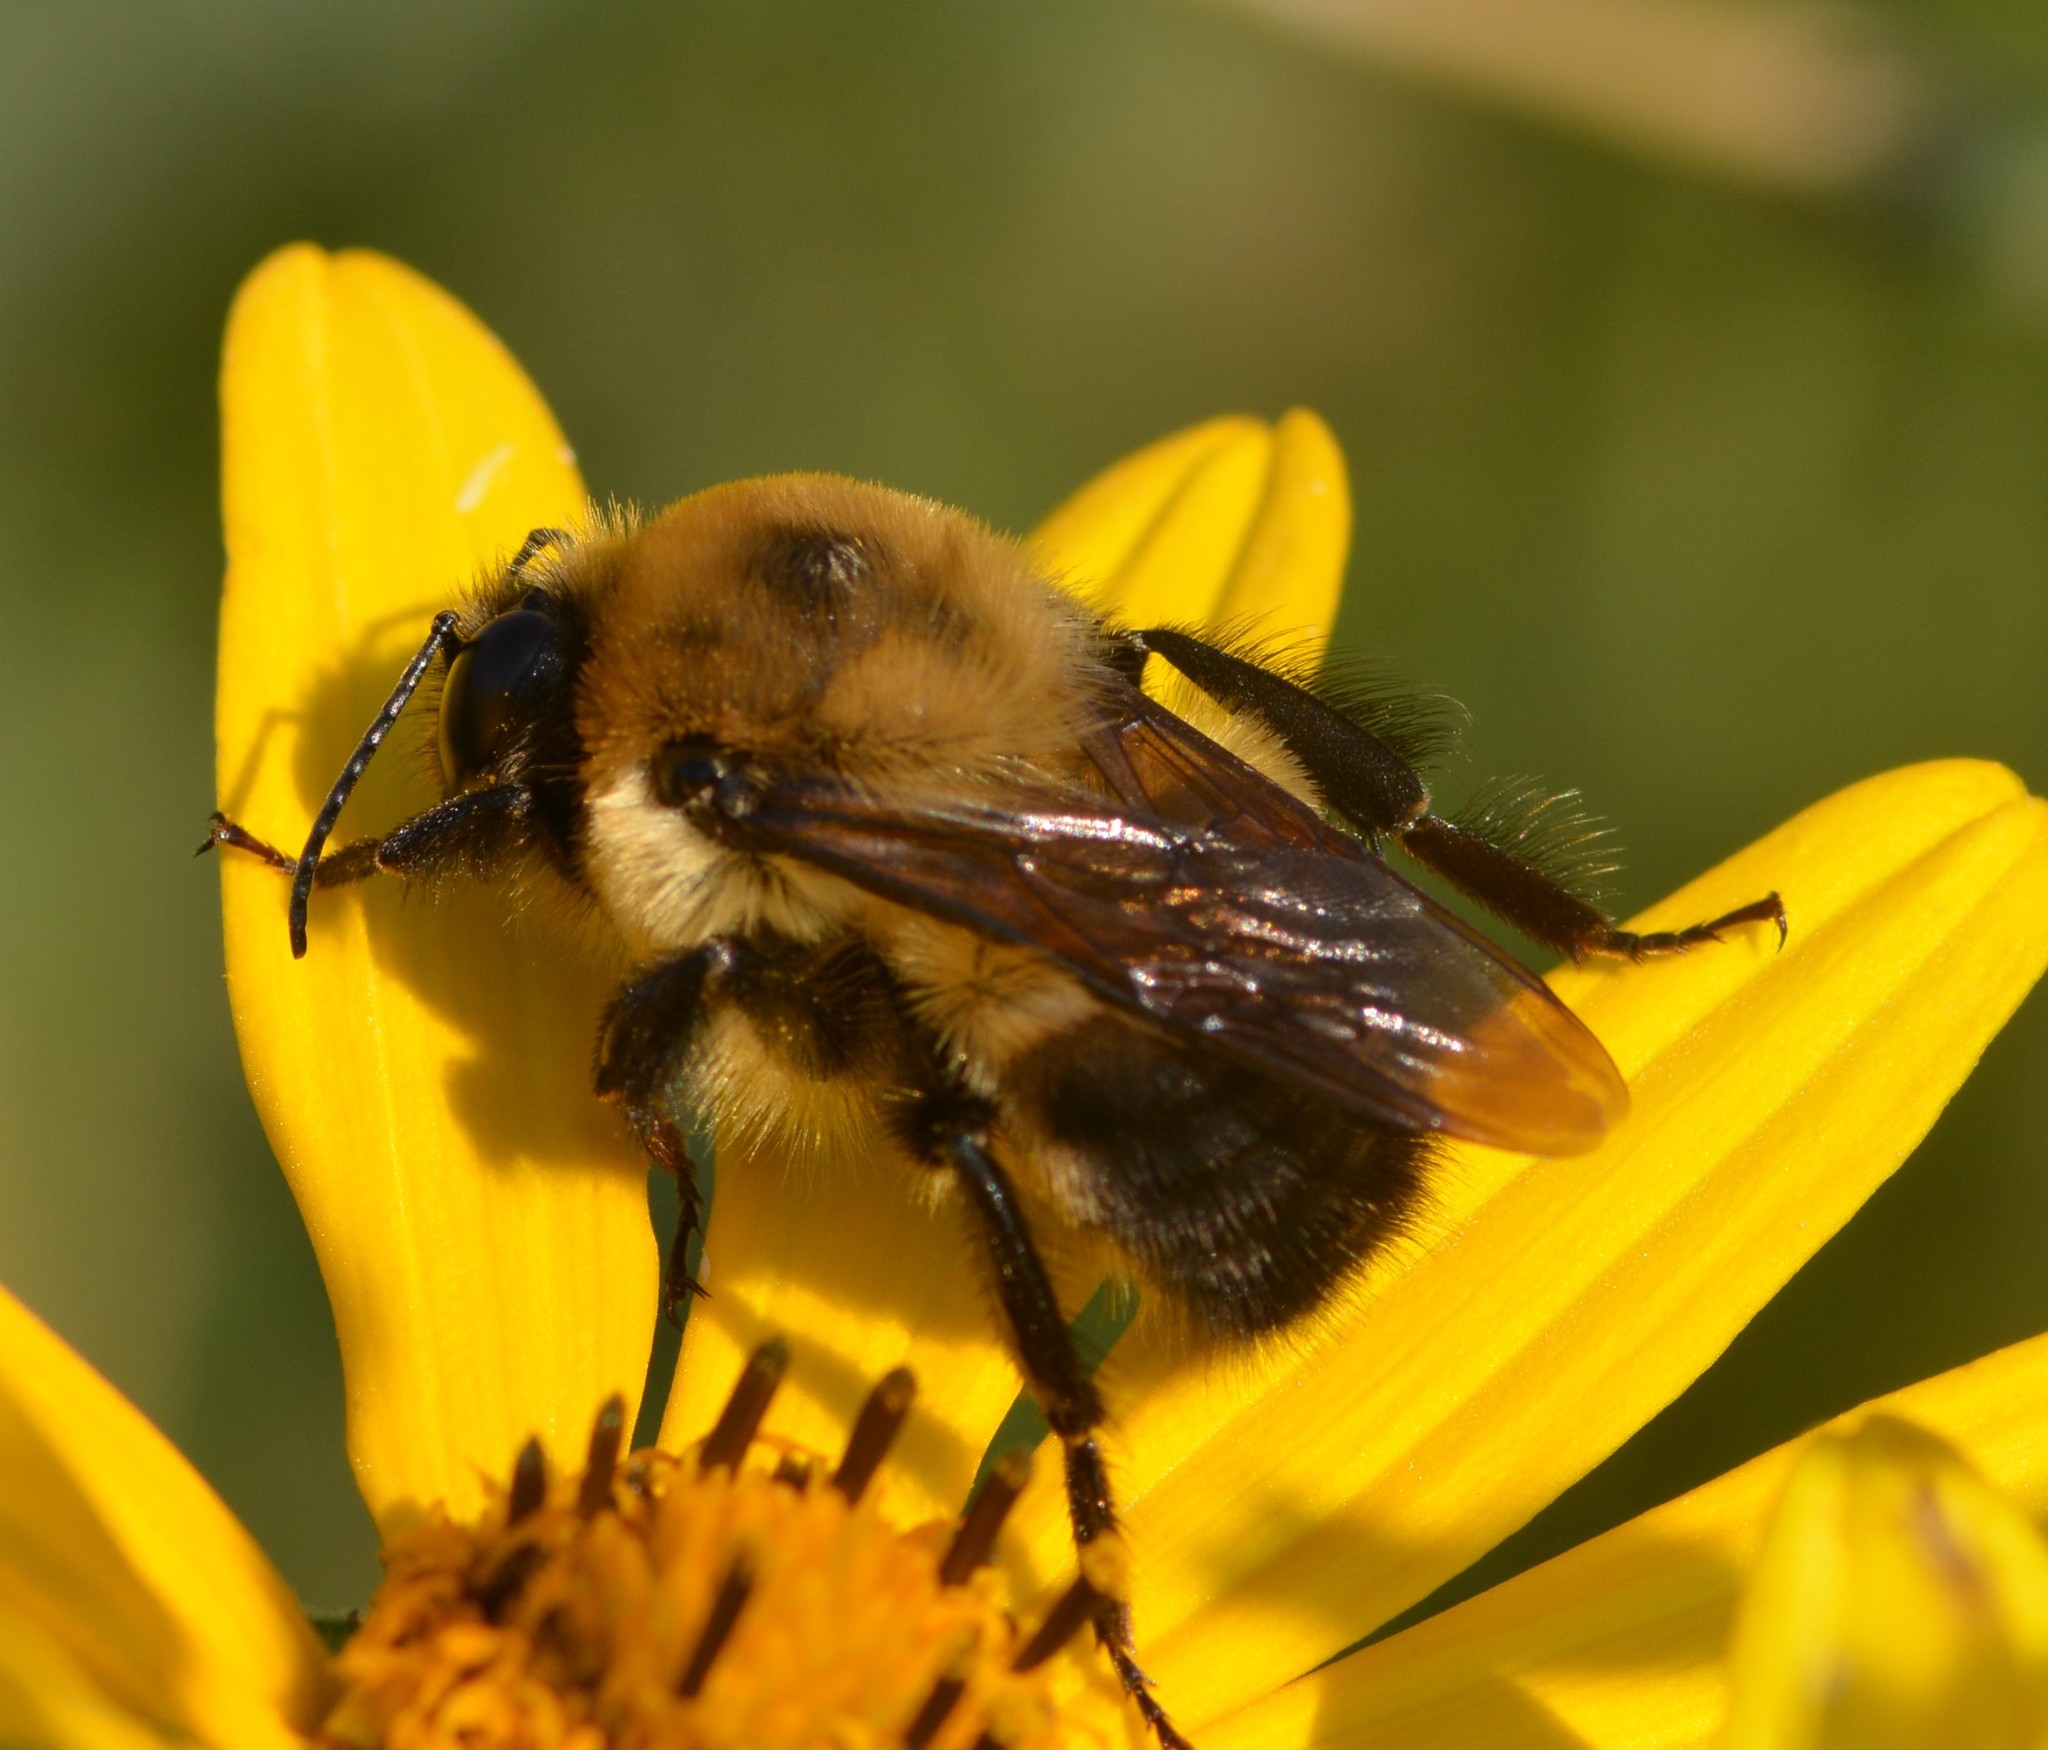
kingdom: Animalia
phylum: Arthropoda
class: Insecta
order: Hymenoptera
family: Apidae
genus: Bombus
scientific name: Bombus griseocollis
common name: Brown-belted bumble bee
